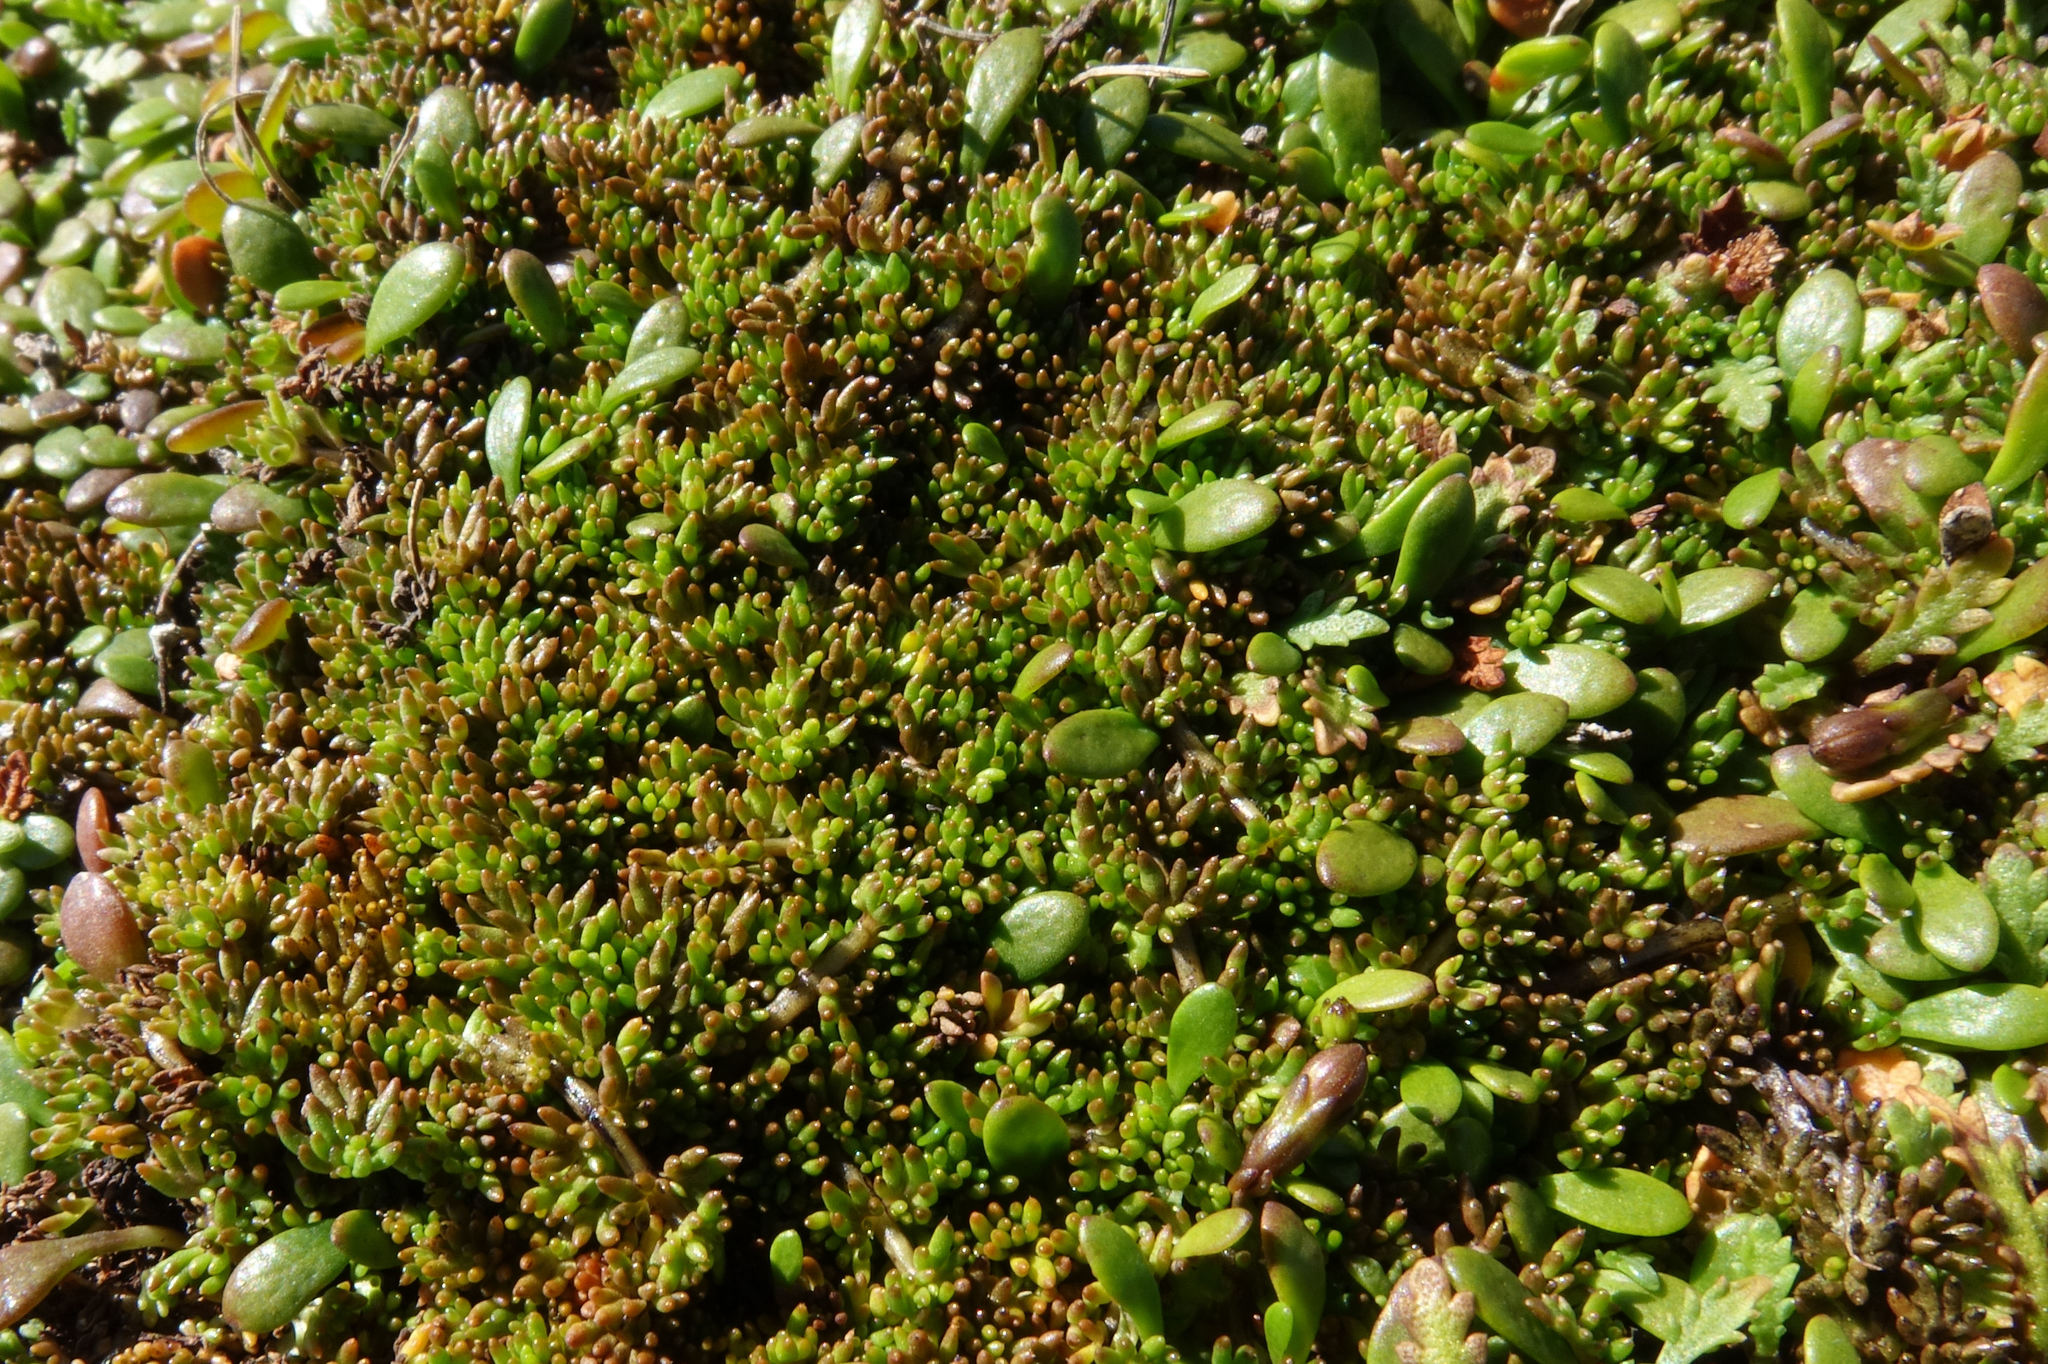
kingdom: Plantae
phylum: Tracheophyta
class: Magnoliopsida
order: Lamiales
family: Orobanchaceae
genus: Euphrasia
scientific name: Euphrasia repens
